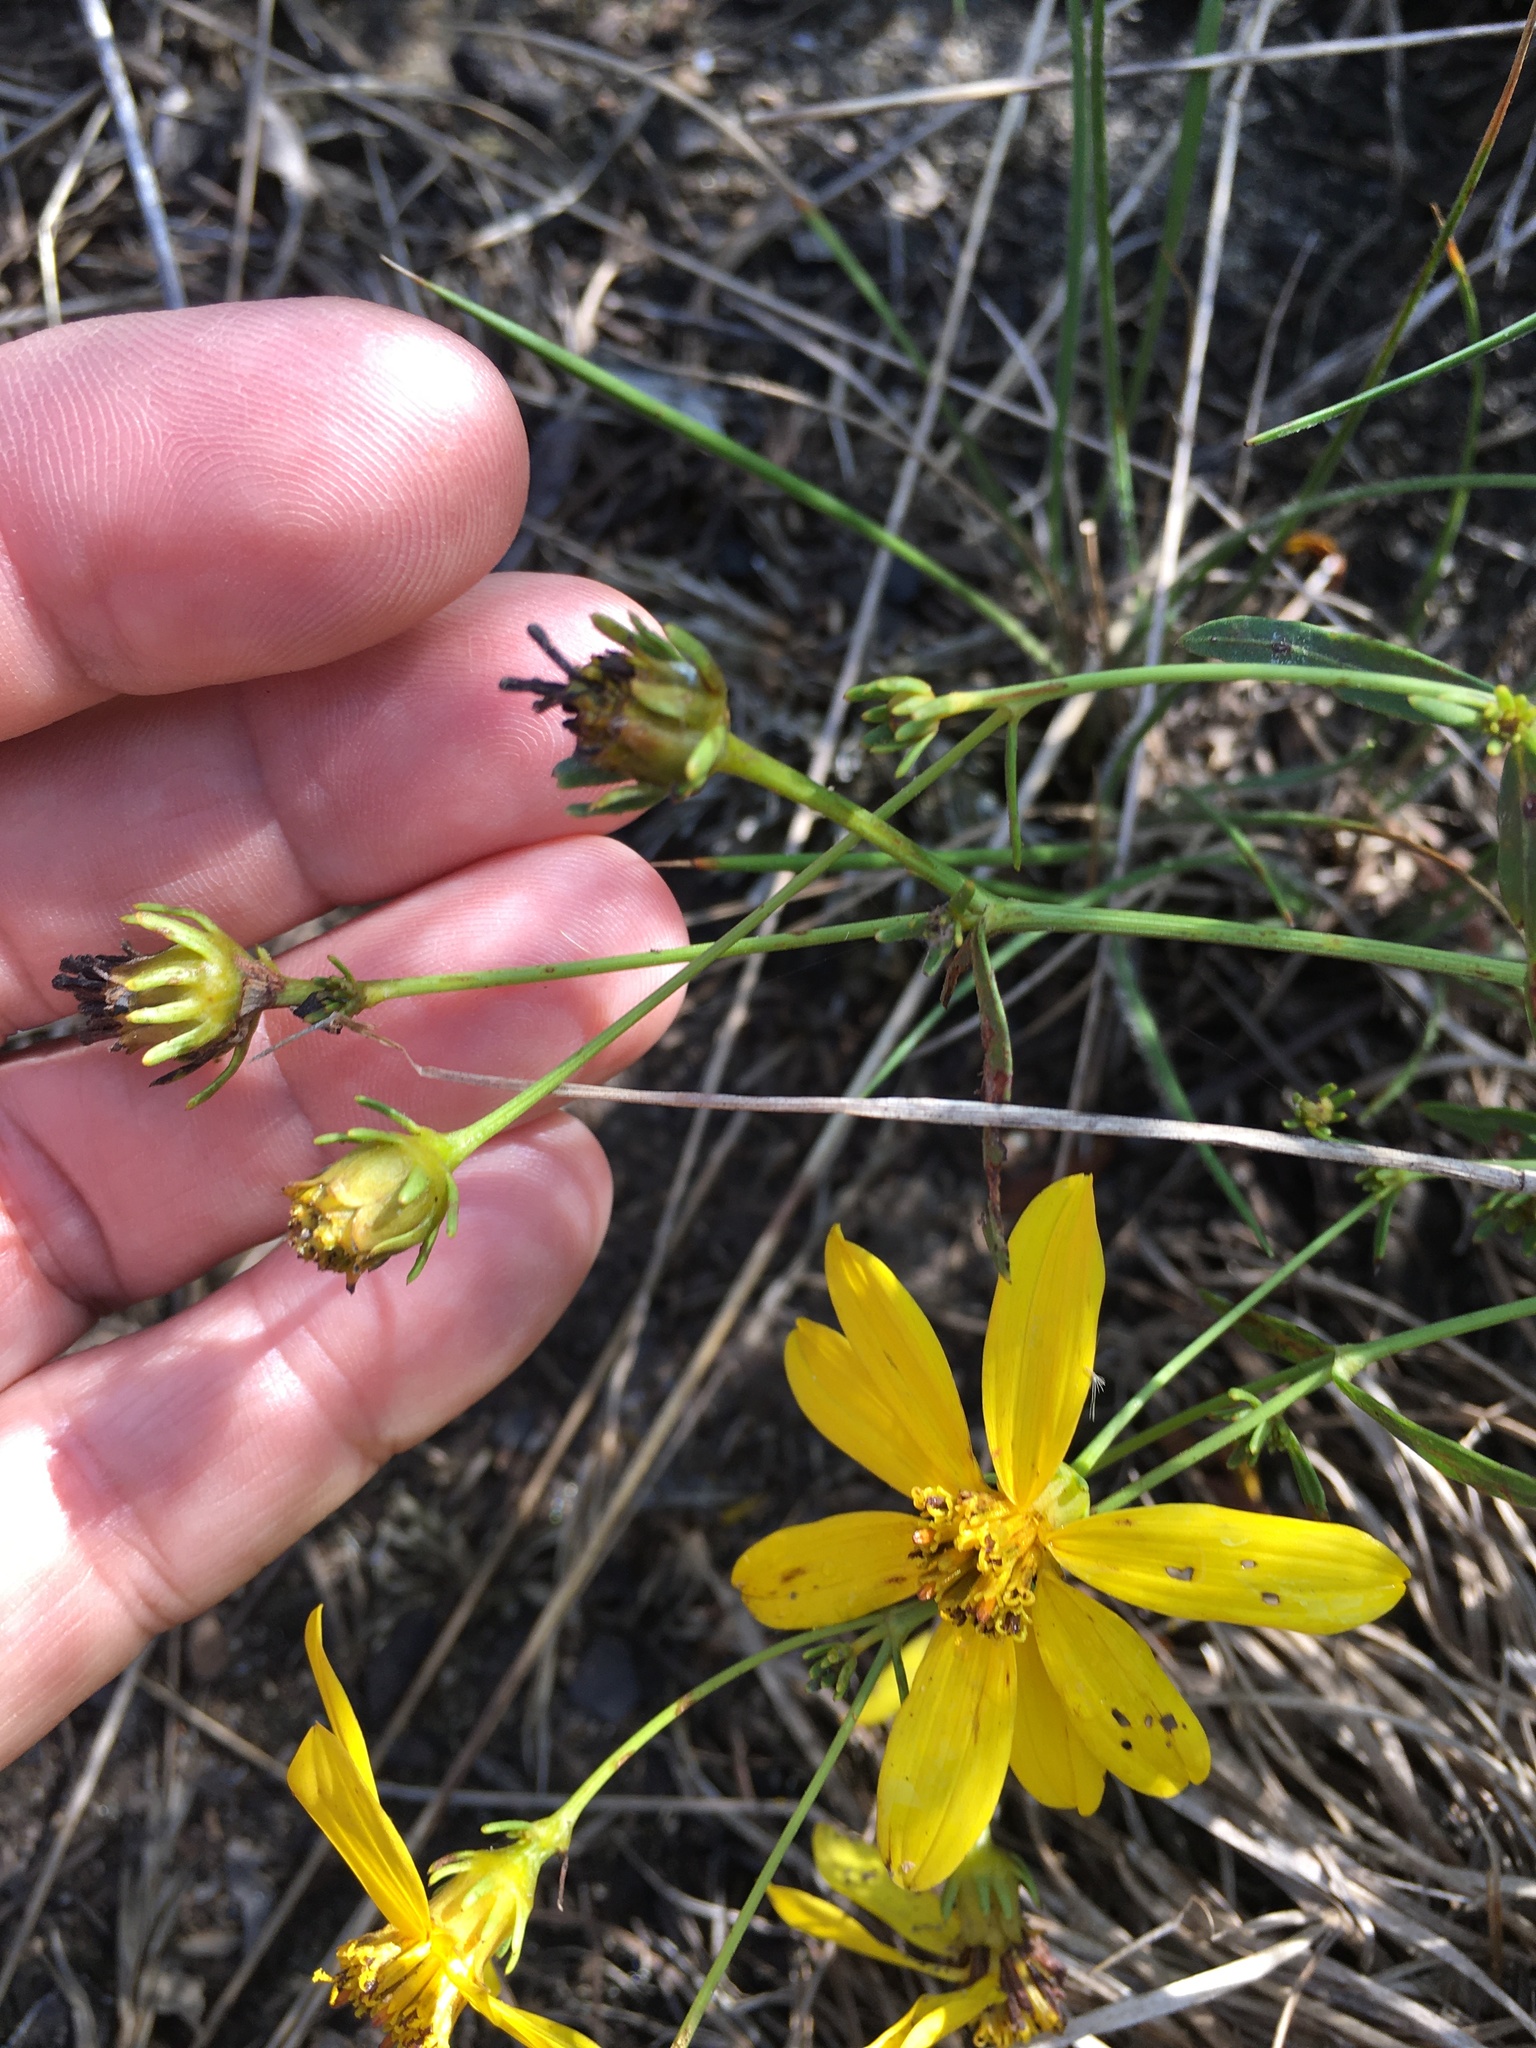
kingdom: Plantae
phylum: Tracheophyta
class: Magnoliopsida
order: Asterales
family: Asteraceae
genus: Coreopsis
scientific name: Coreopsis major
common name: Forest tickseed
